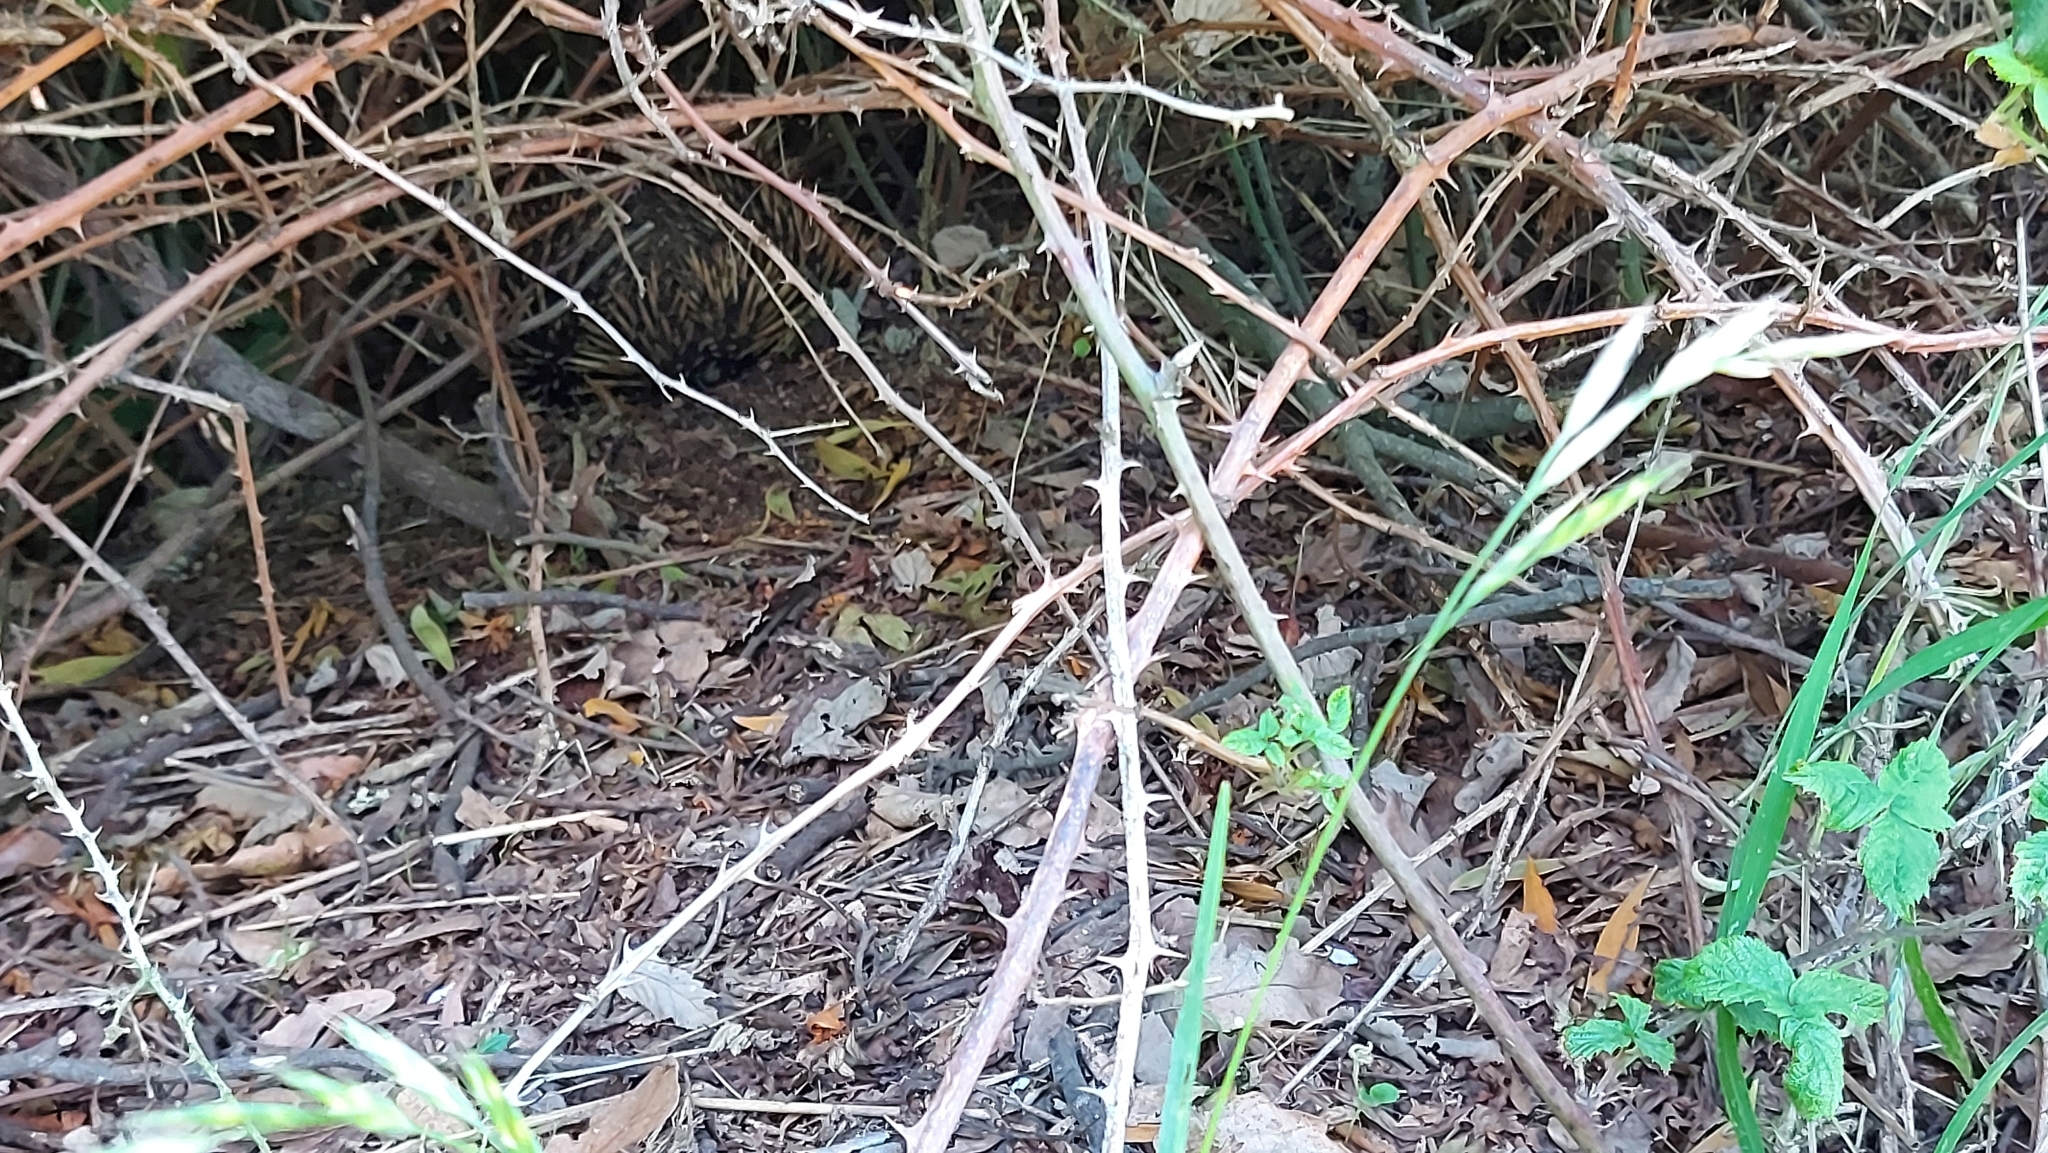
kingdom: Animalia
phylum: Chordata
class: Mammalia
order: Monotremata
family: Tachyglossidae
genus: Tachyglossus
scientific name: Tachyglossus aculeatus
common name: Short-beaked echidna
